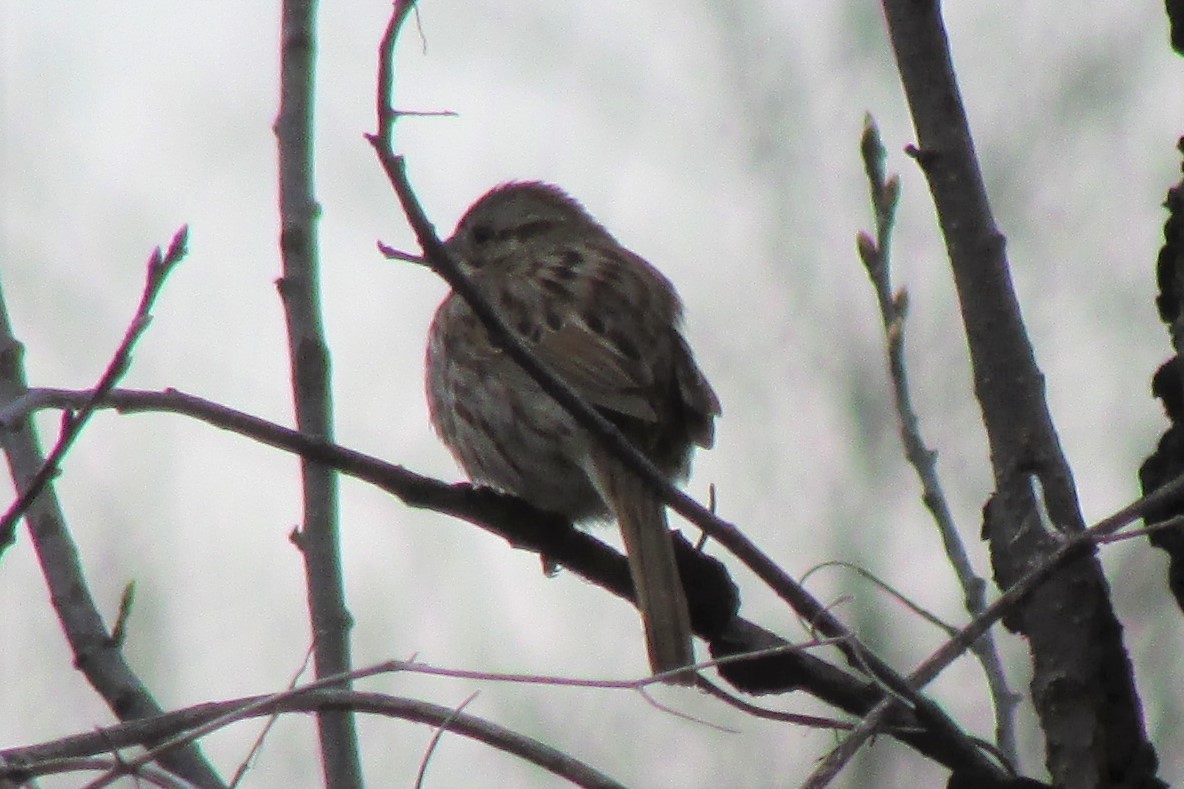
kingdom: Animalia
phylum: Chordata
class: Aves
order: Passeriformes
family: Passerellidae
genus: Melospiza
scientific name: Melospiza melodia
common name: Song sparrow
